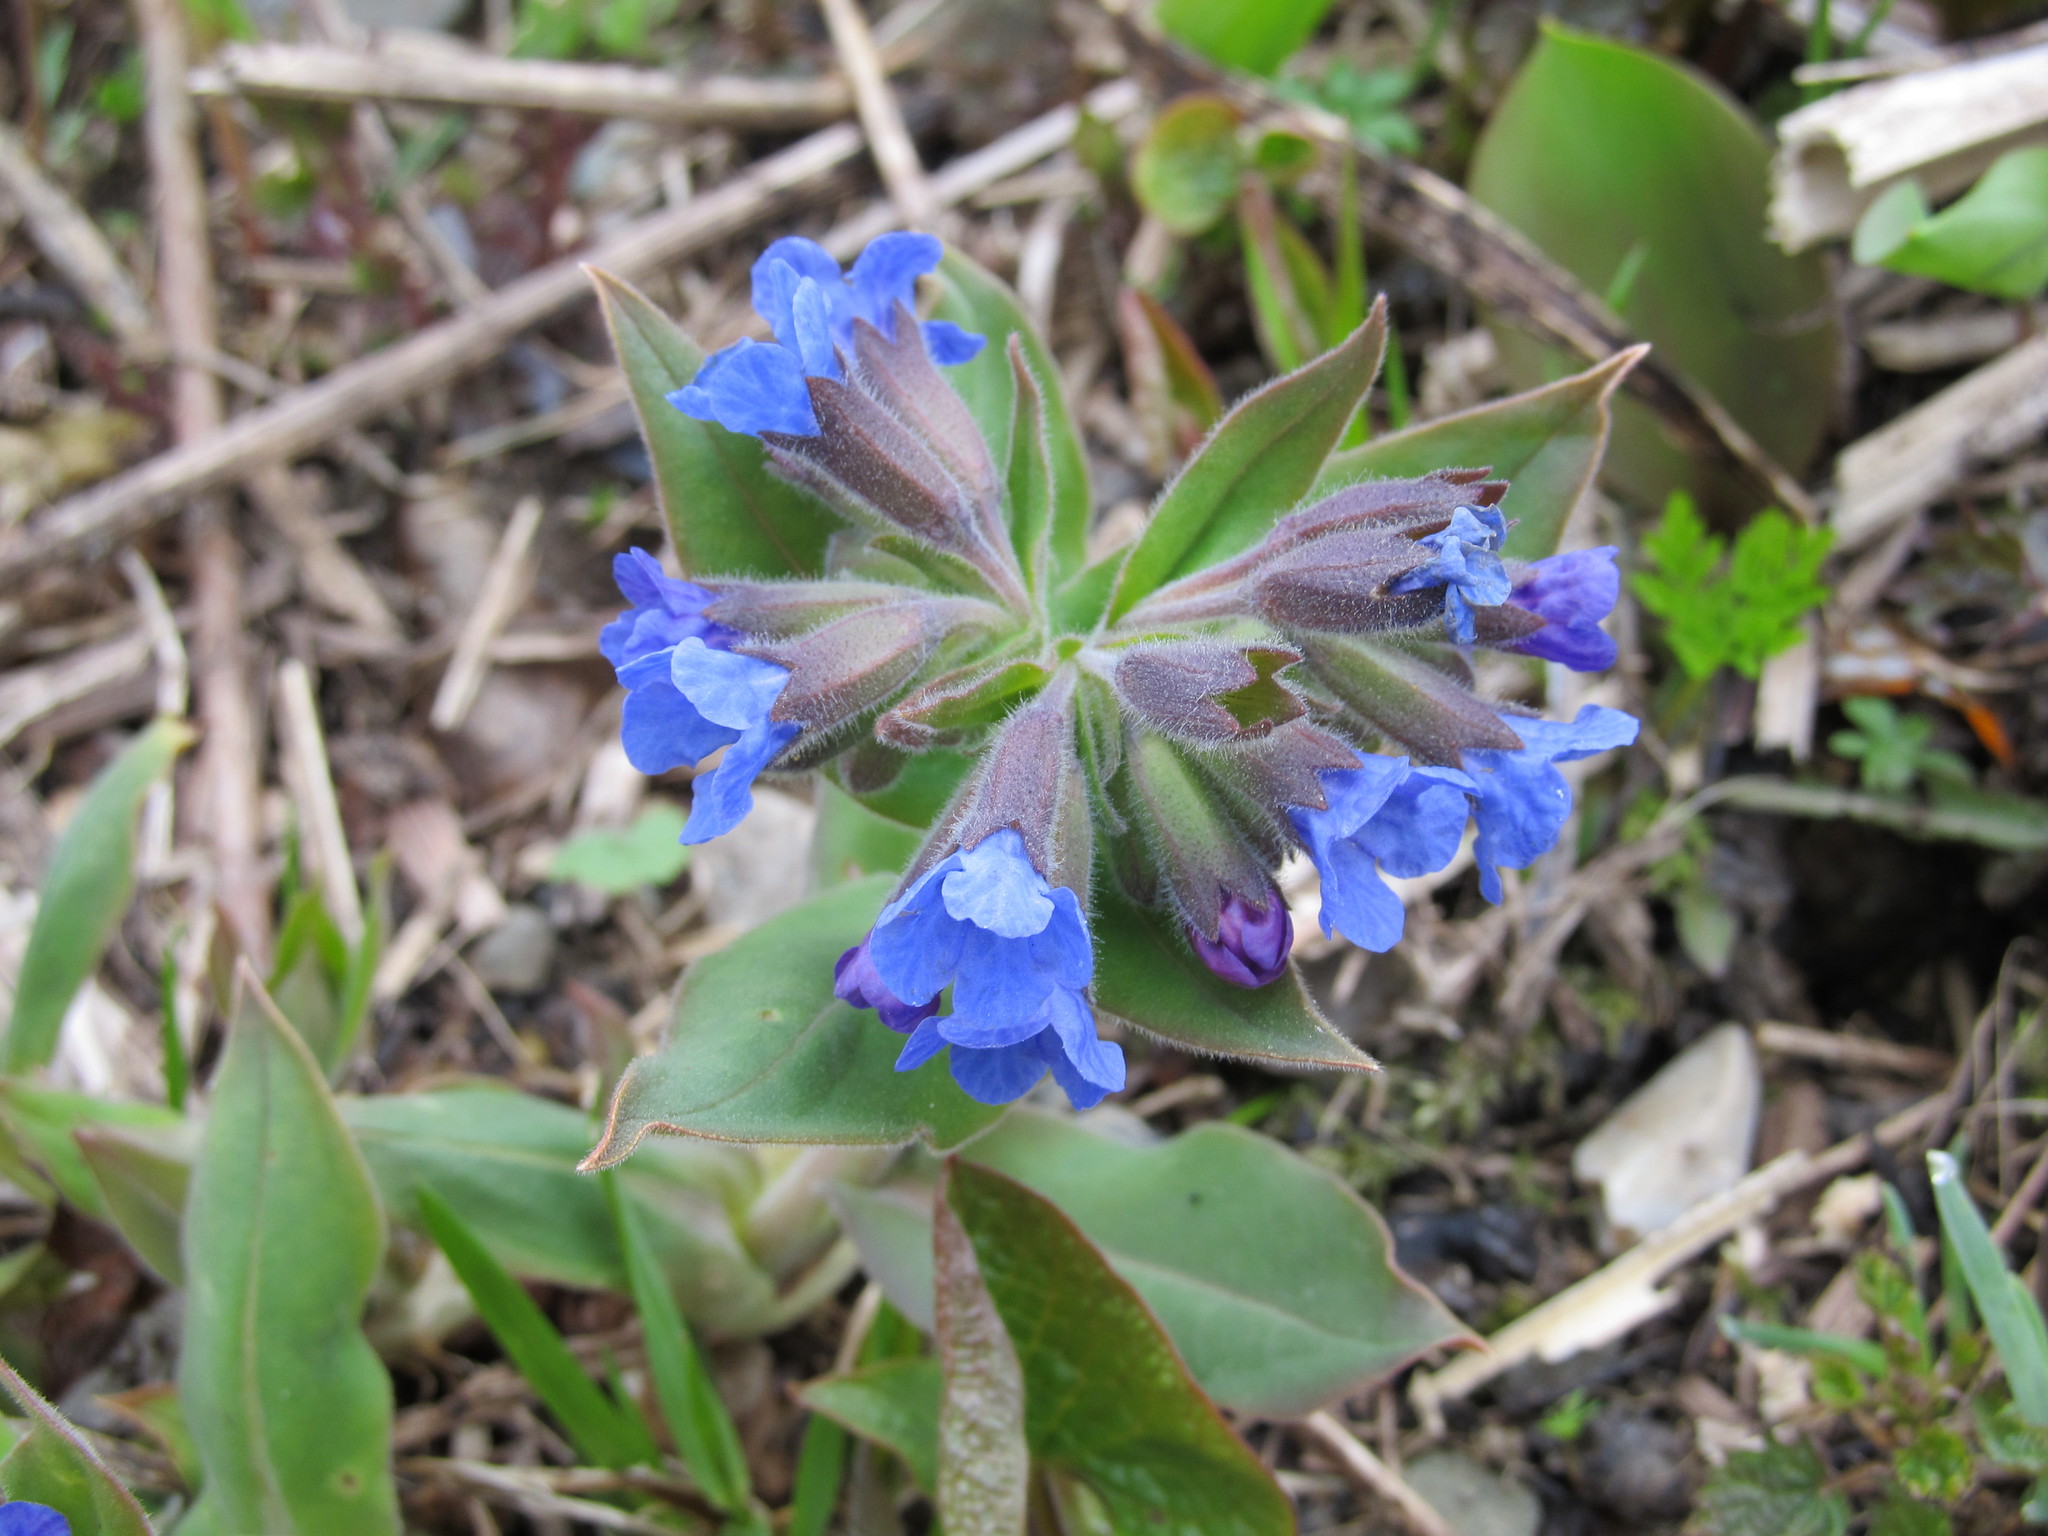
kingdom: Plantae
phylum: Tracheophyta
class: Magnoliopsida
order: Boraginales
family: Boraginaceae
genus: Pulmonaria
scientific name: Pulmonaria mollis
